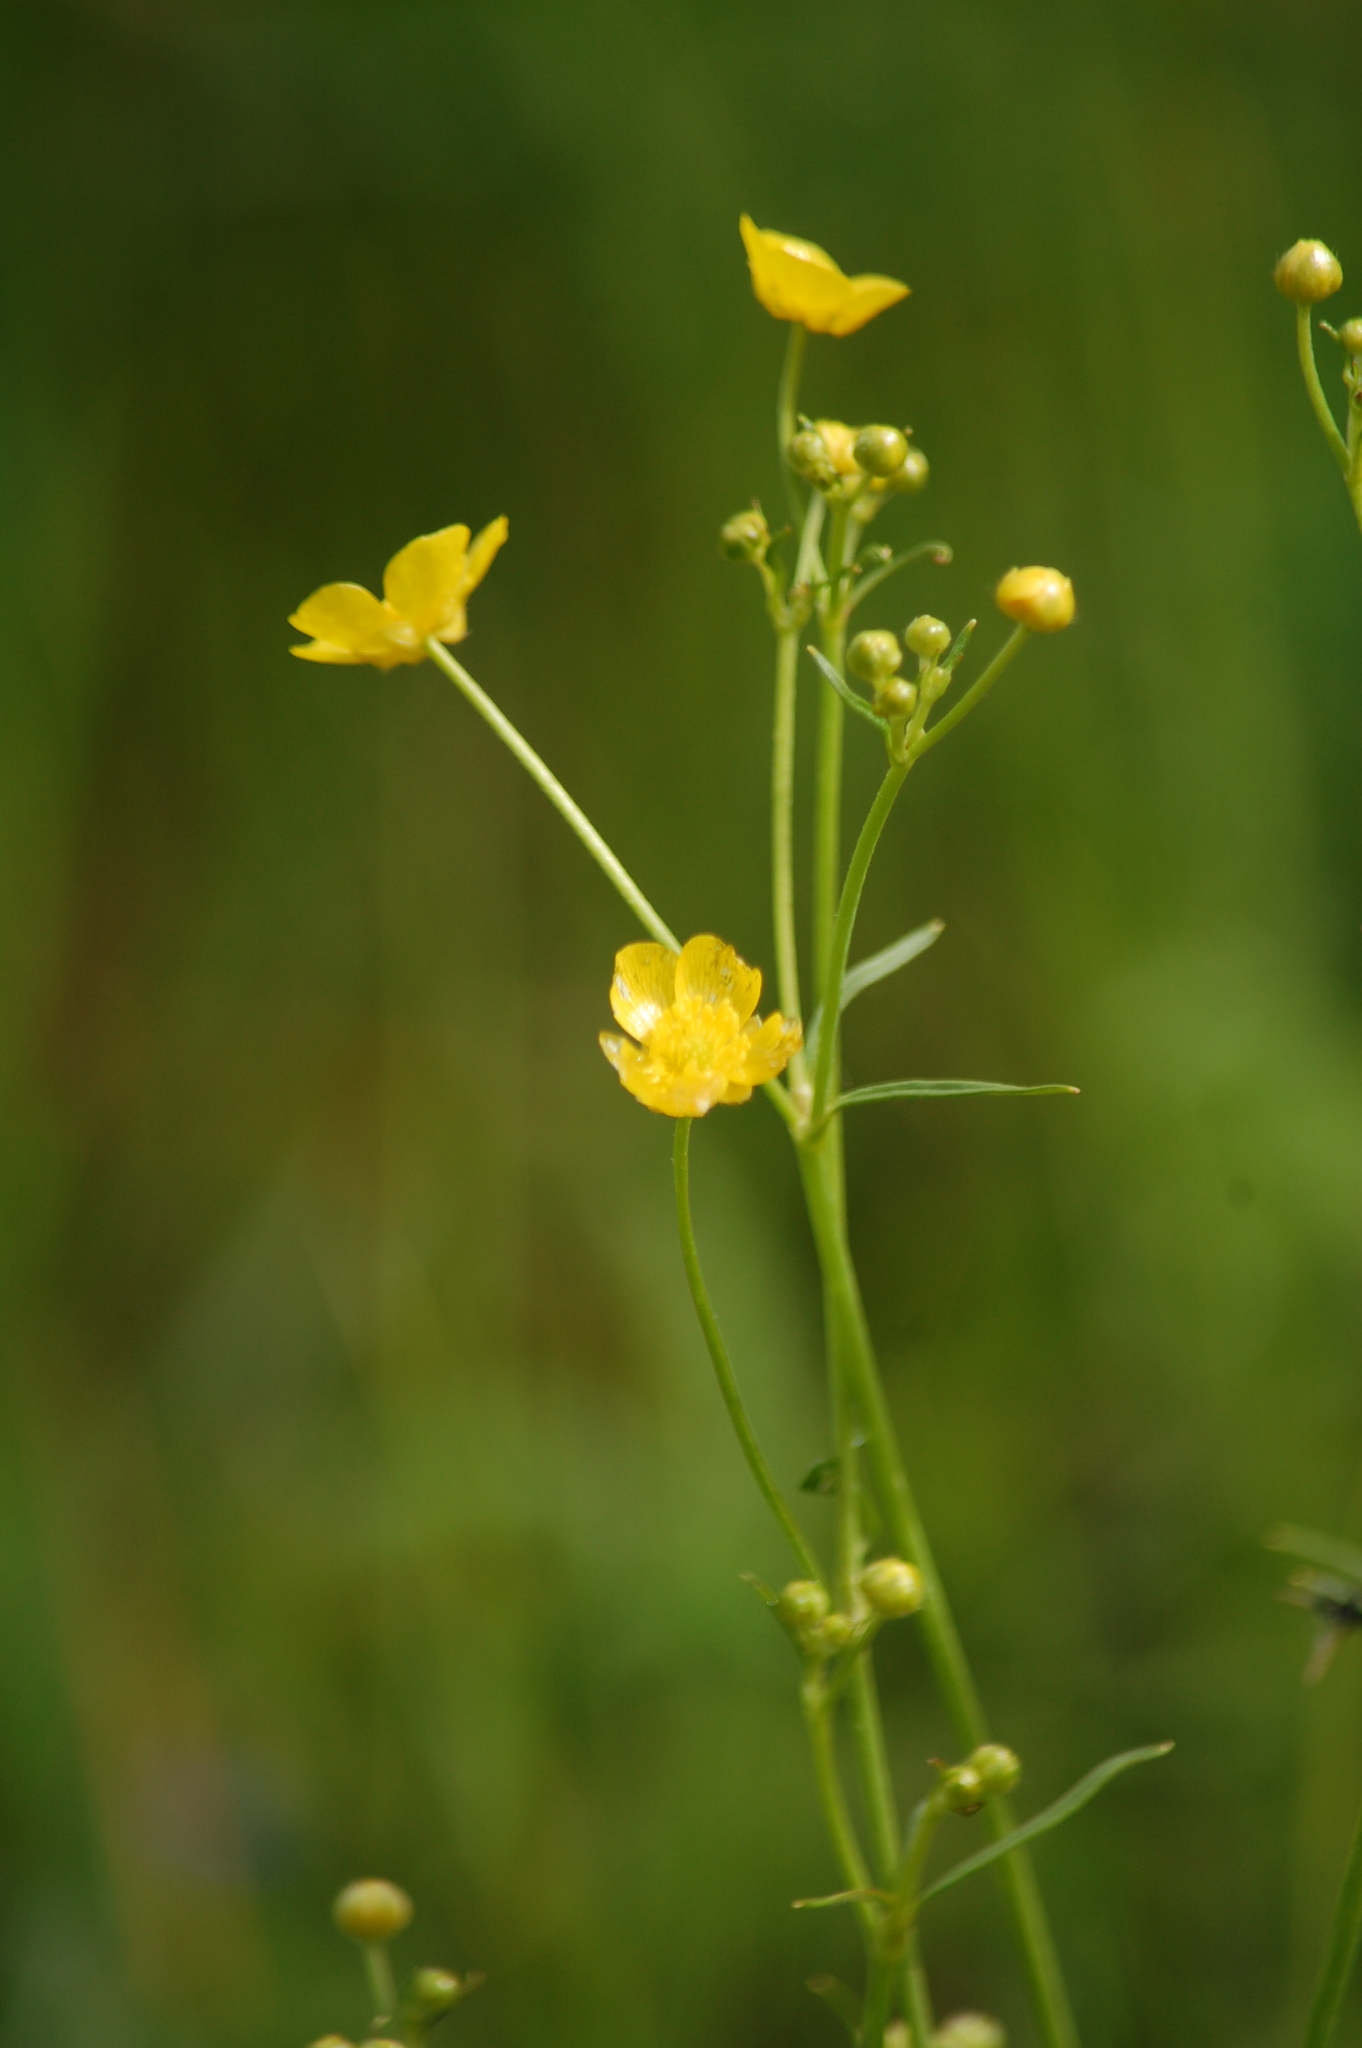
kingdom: Plantae
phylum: Tracheophyta
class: Magnoliopsida
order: Ranunculales
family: Ranunculaceae
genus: Ranunculus
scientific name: Ranunculus acris
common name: Meadow buttercup
